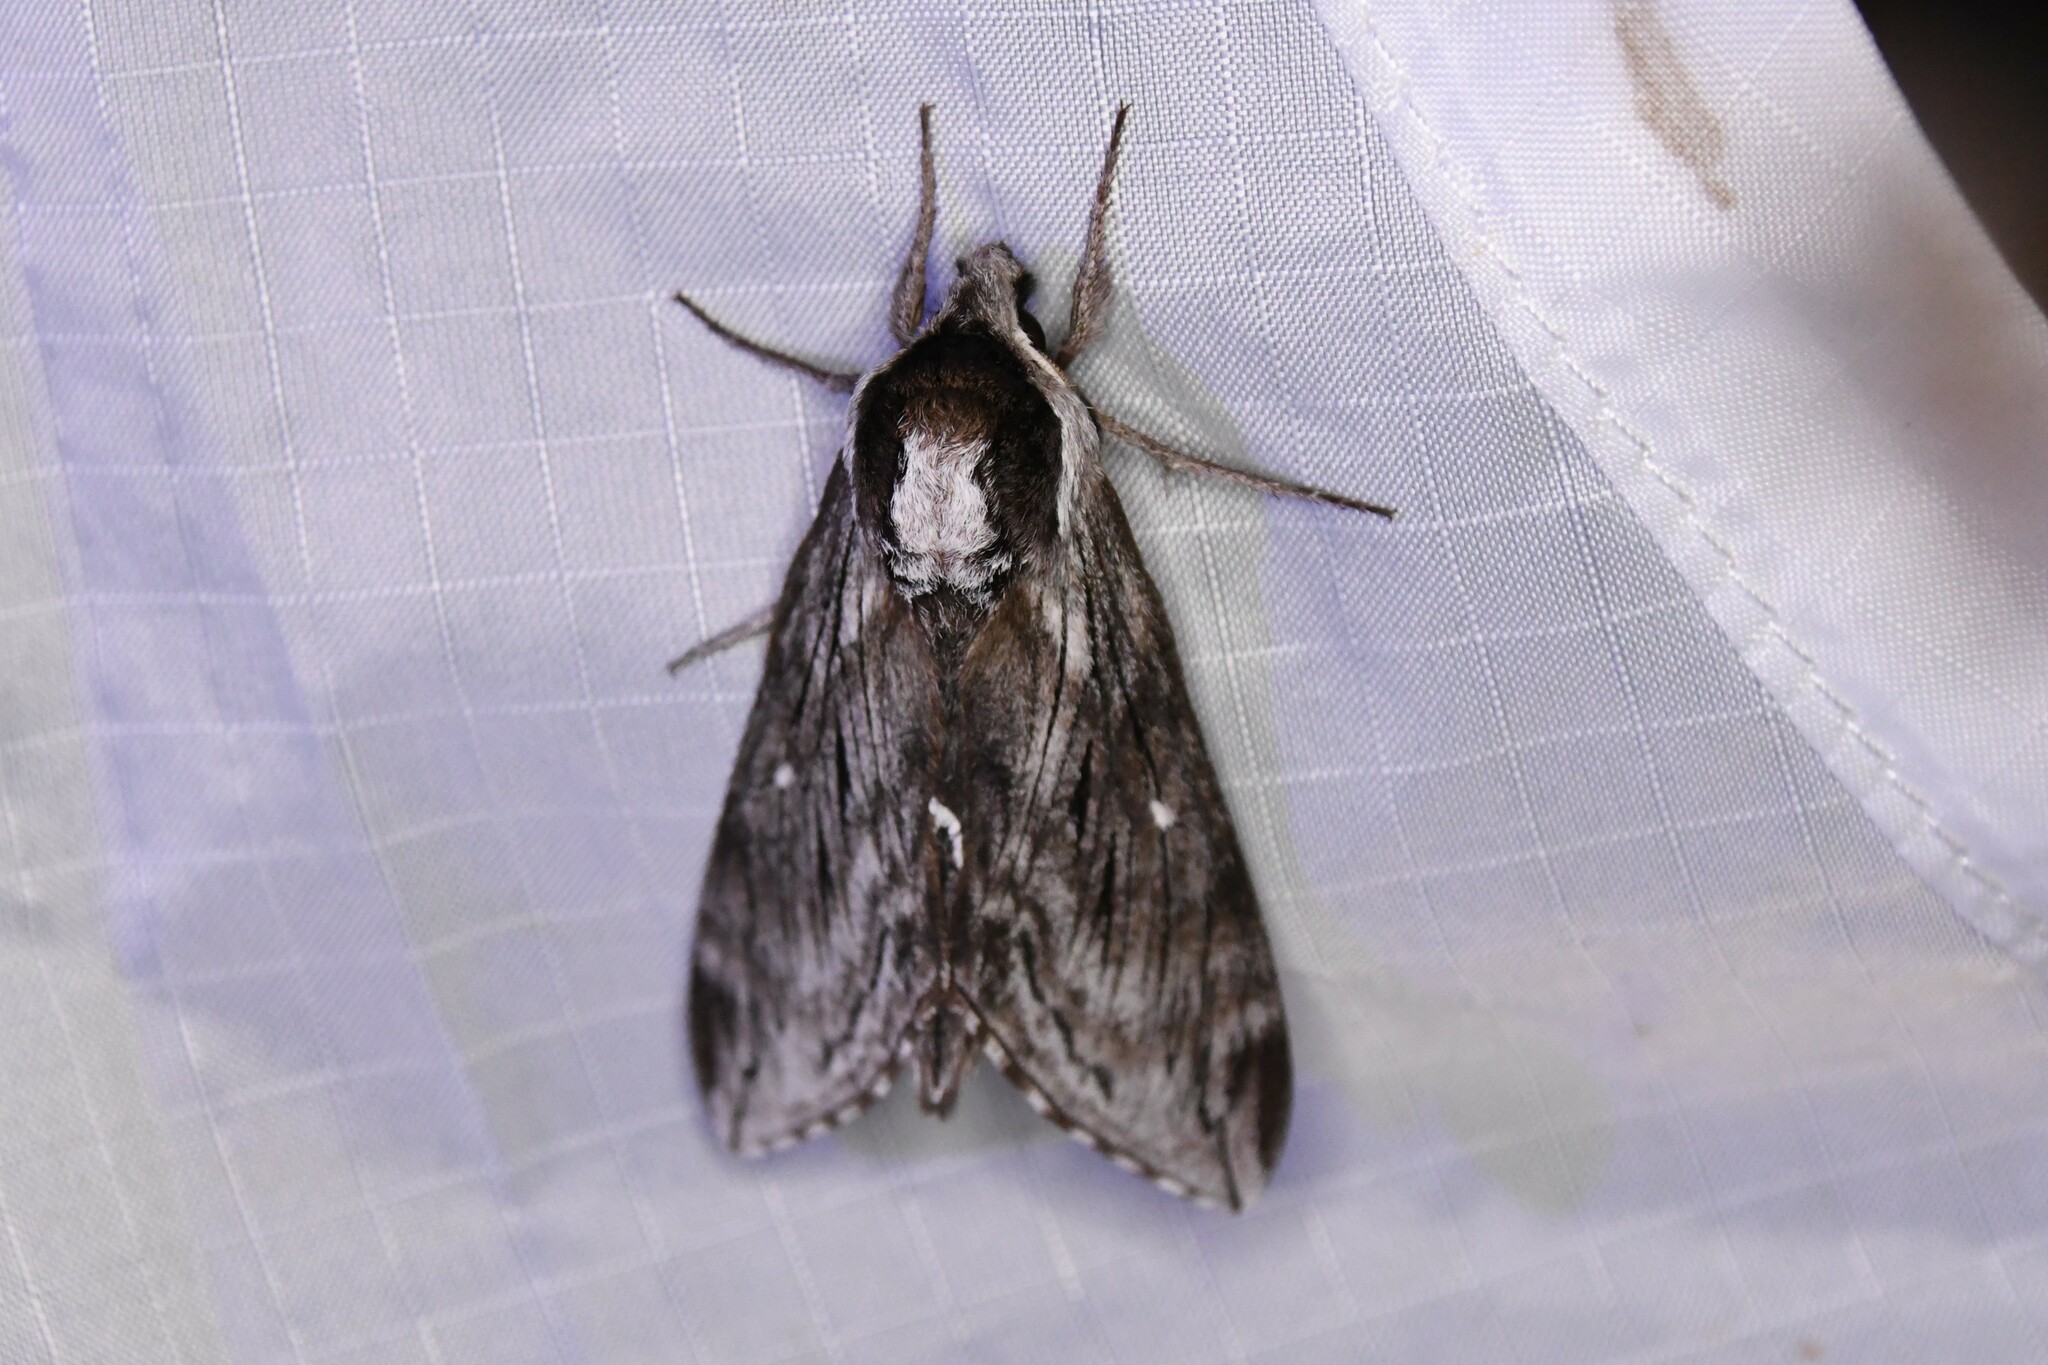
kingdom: Animalia
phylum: Arthropoda
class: Insecta
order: Lepidoptera
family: Sphingidae
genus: Sphinx
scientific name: Sphinx poecila
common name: Northern apple sphinx
